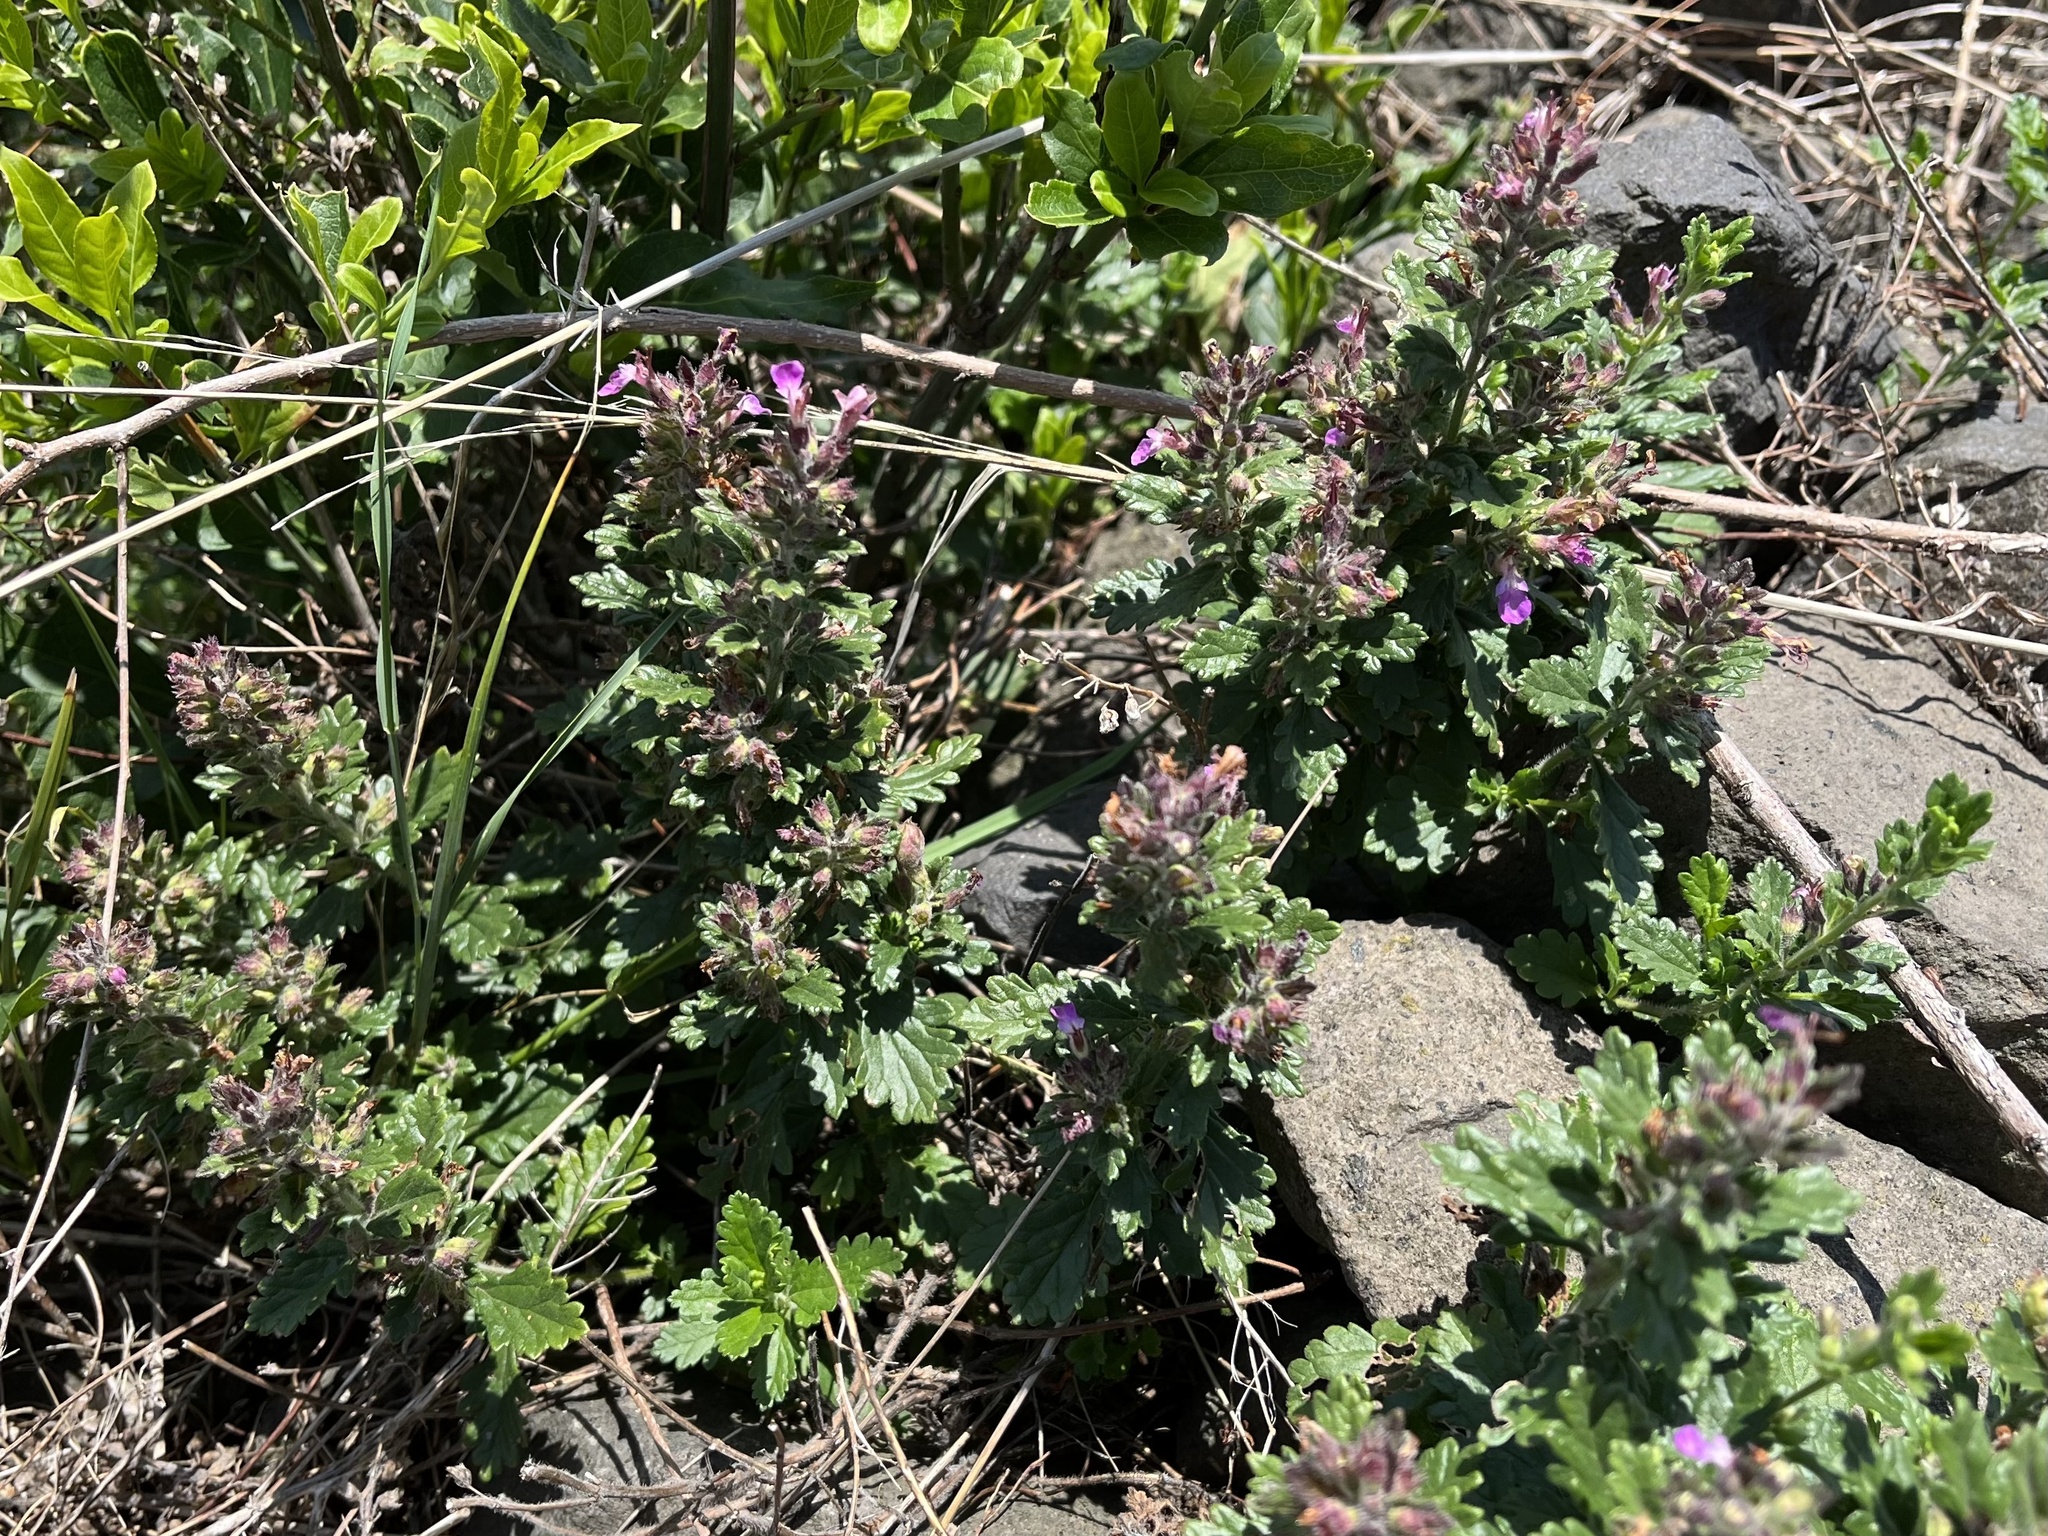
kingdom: Plantae
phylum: Tracheophyta
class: Magnoliopsida
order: Lamiales
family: Lamiaceae
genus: Teucrium
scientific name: Teucrium chamaedrys
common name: Wall germander
